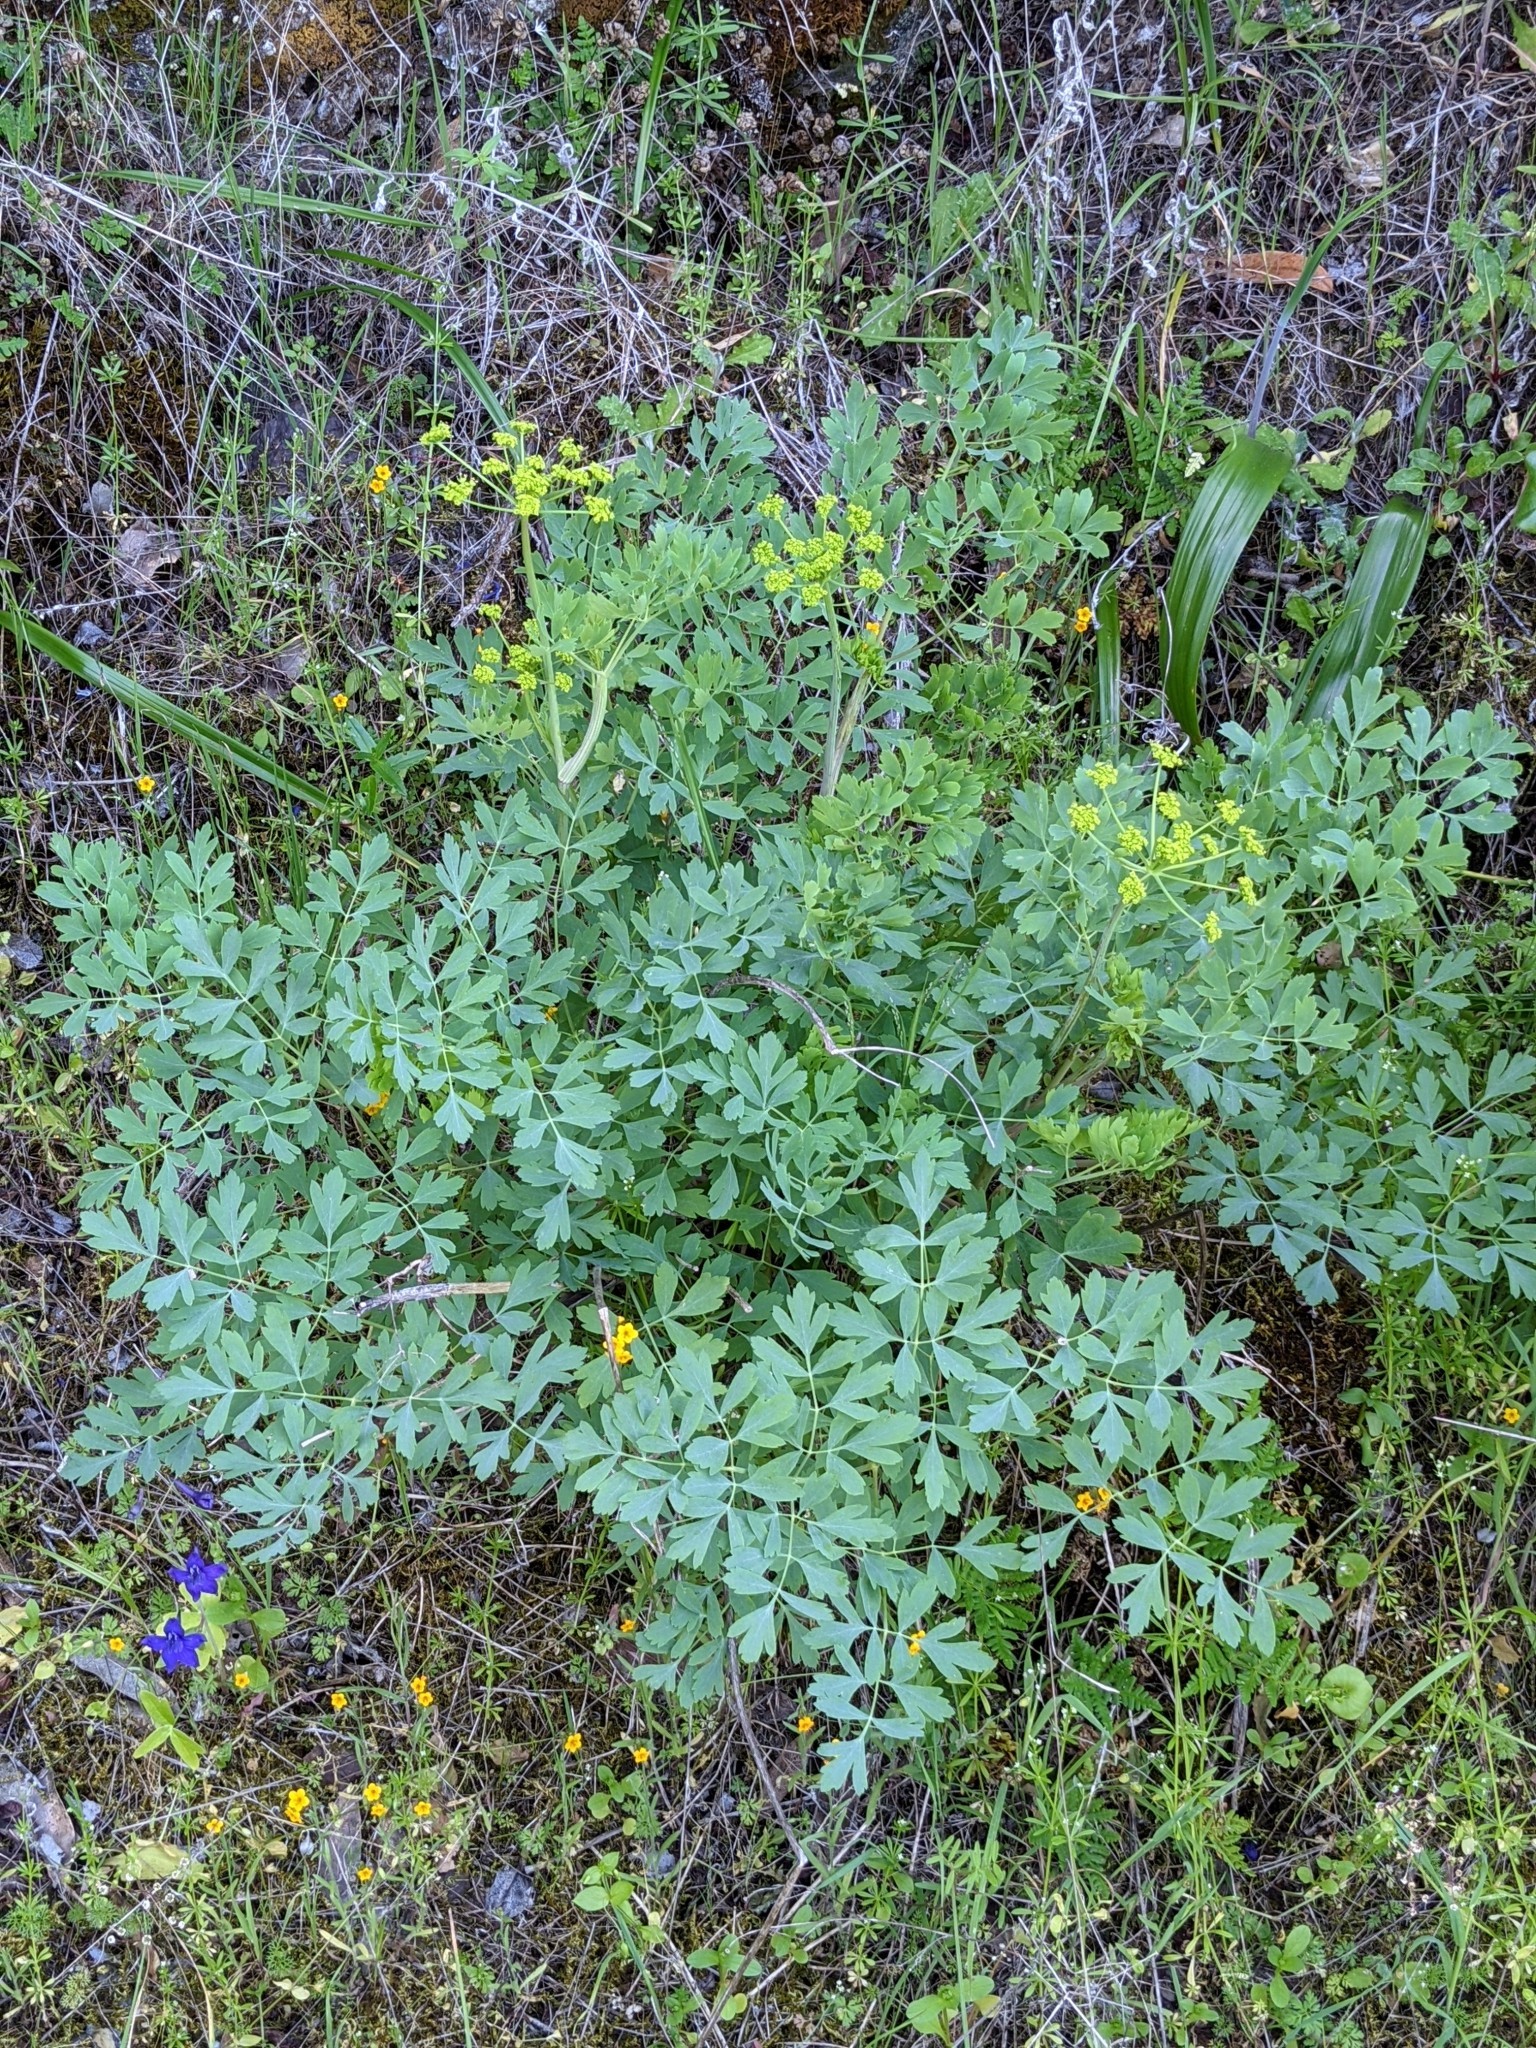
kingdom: Plantae
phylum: Tracheophyta
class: Magnoliopsida
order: Apiales
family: Apiaceae
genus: Lomatium
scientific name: Lomatium californicum
